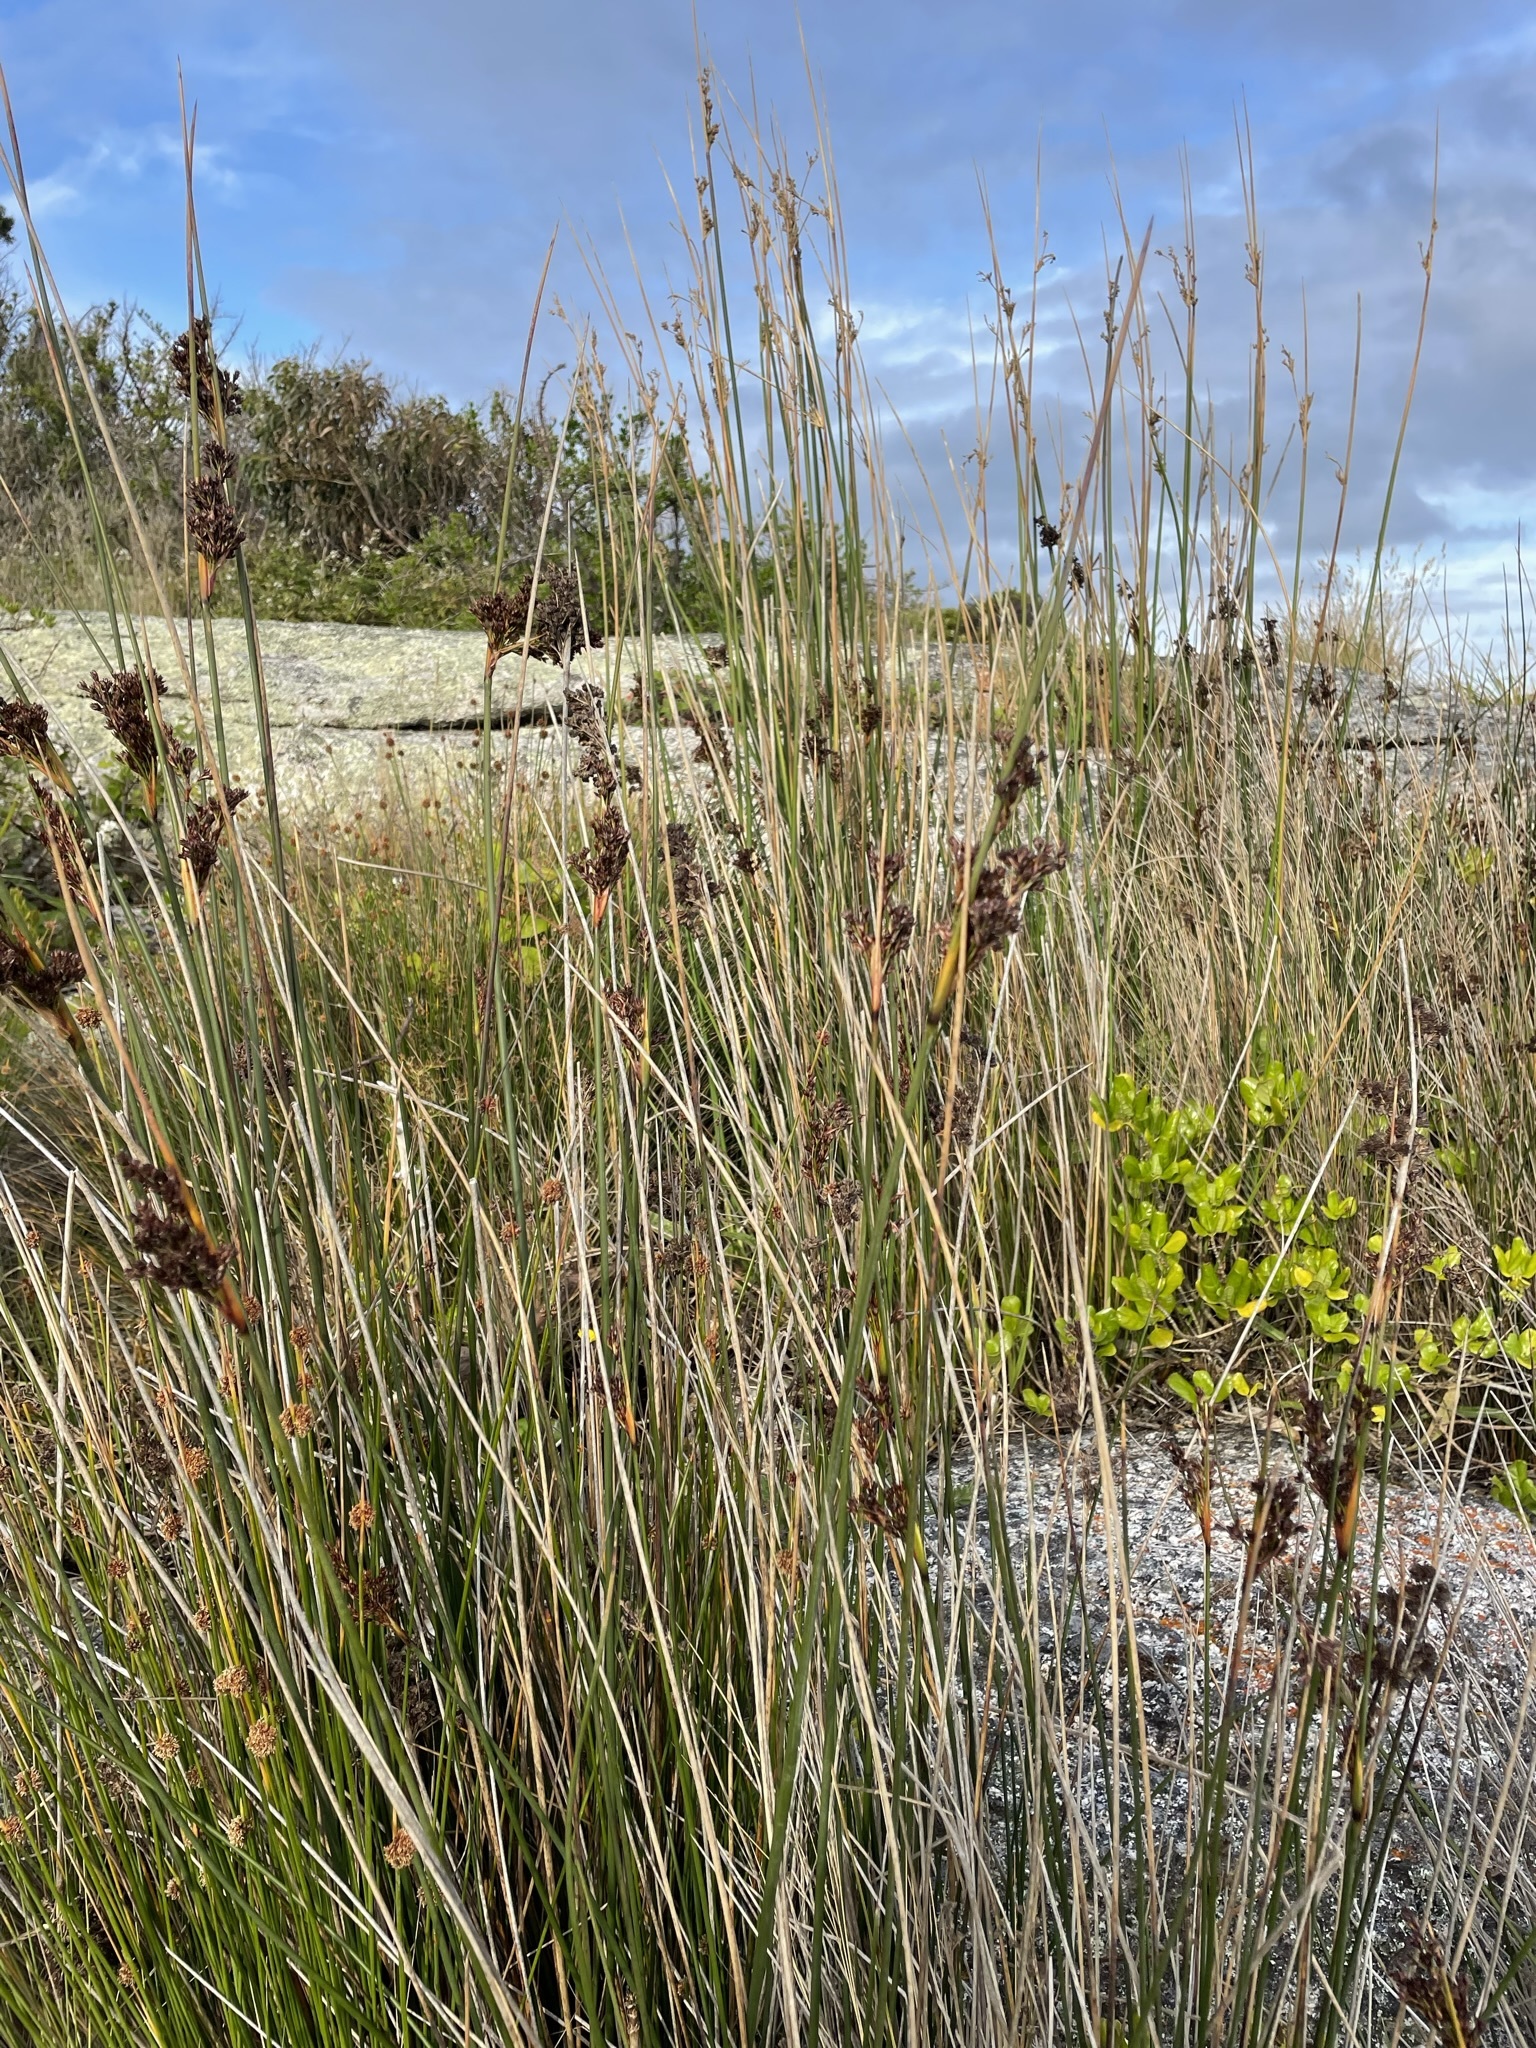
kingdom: Plantae
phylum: Tracheophyta
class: Liliopsida
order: Poales
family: Juncaceae
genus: Juncus
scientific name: Juncus kraussii
